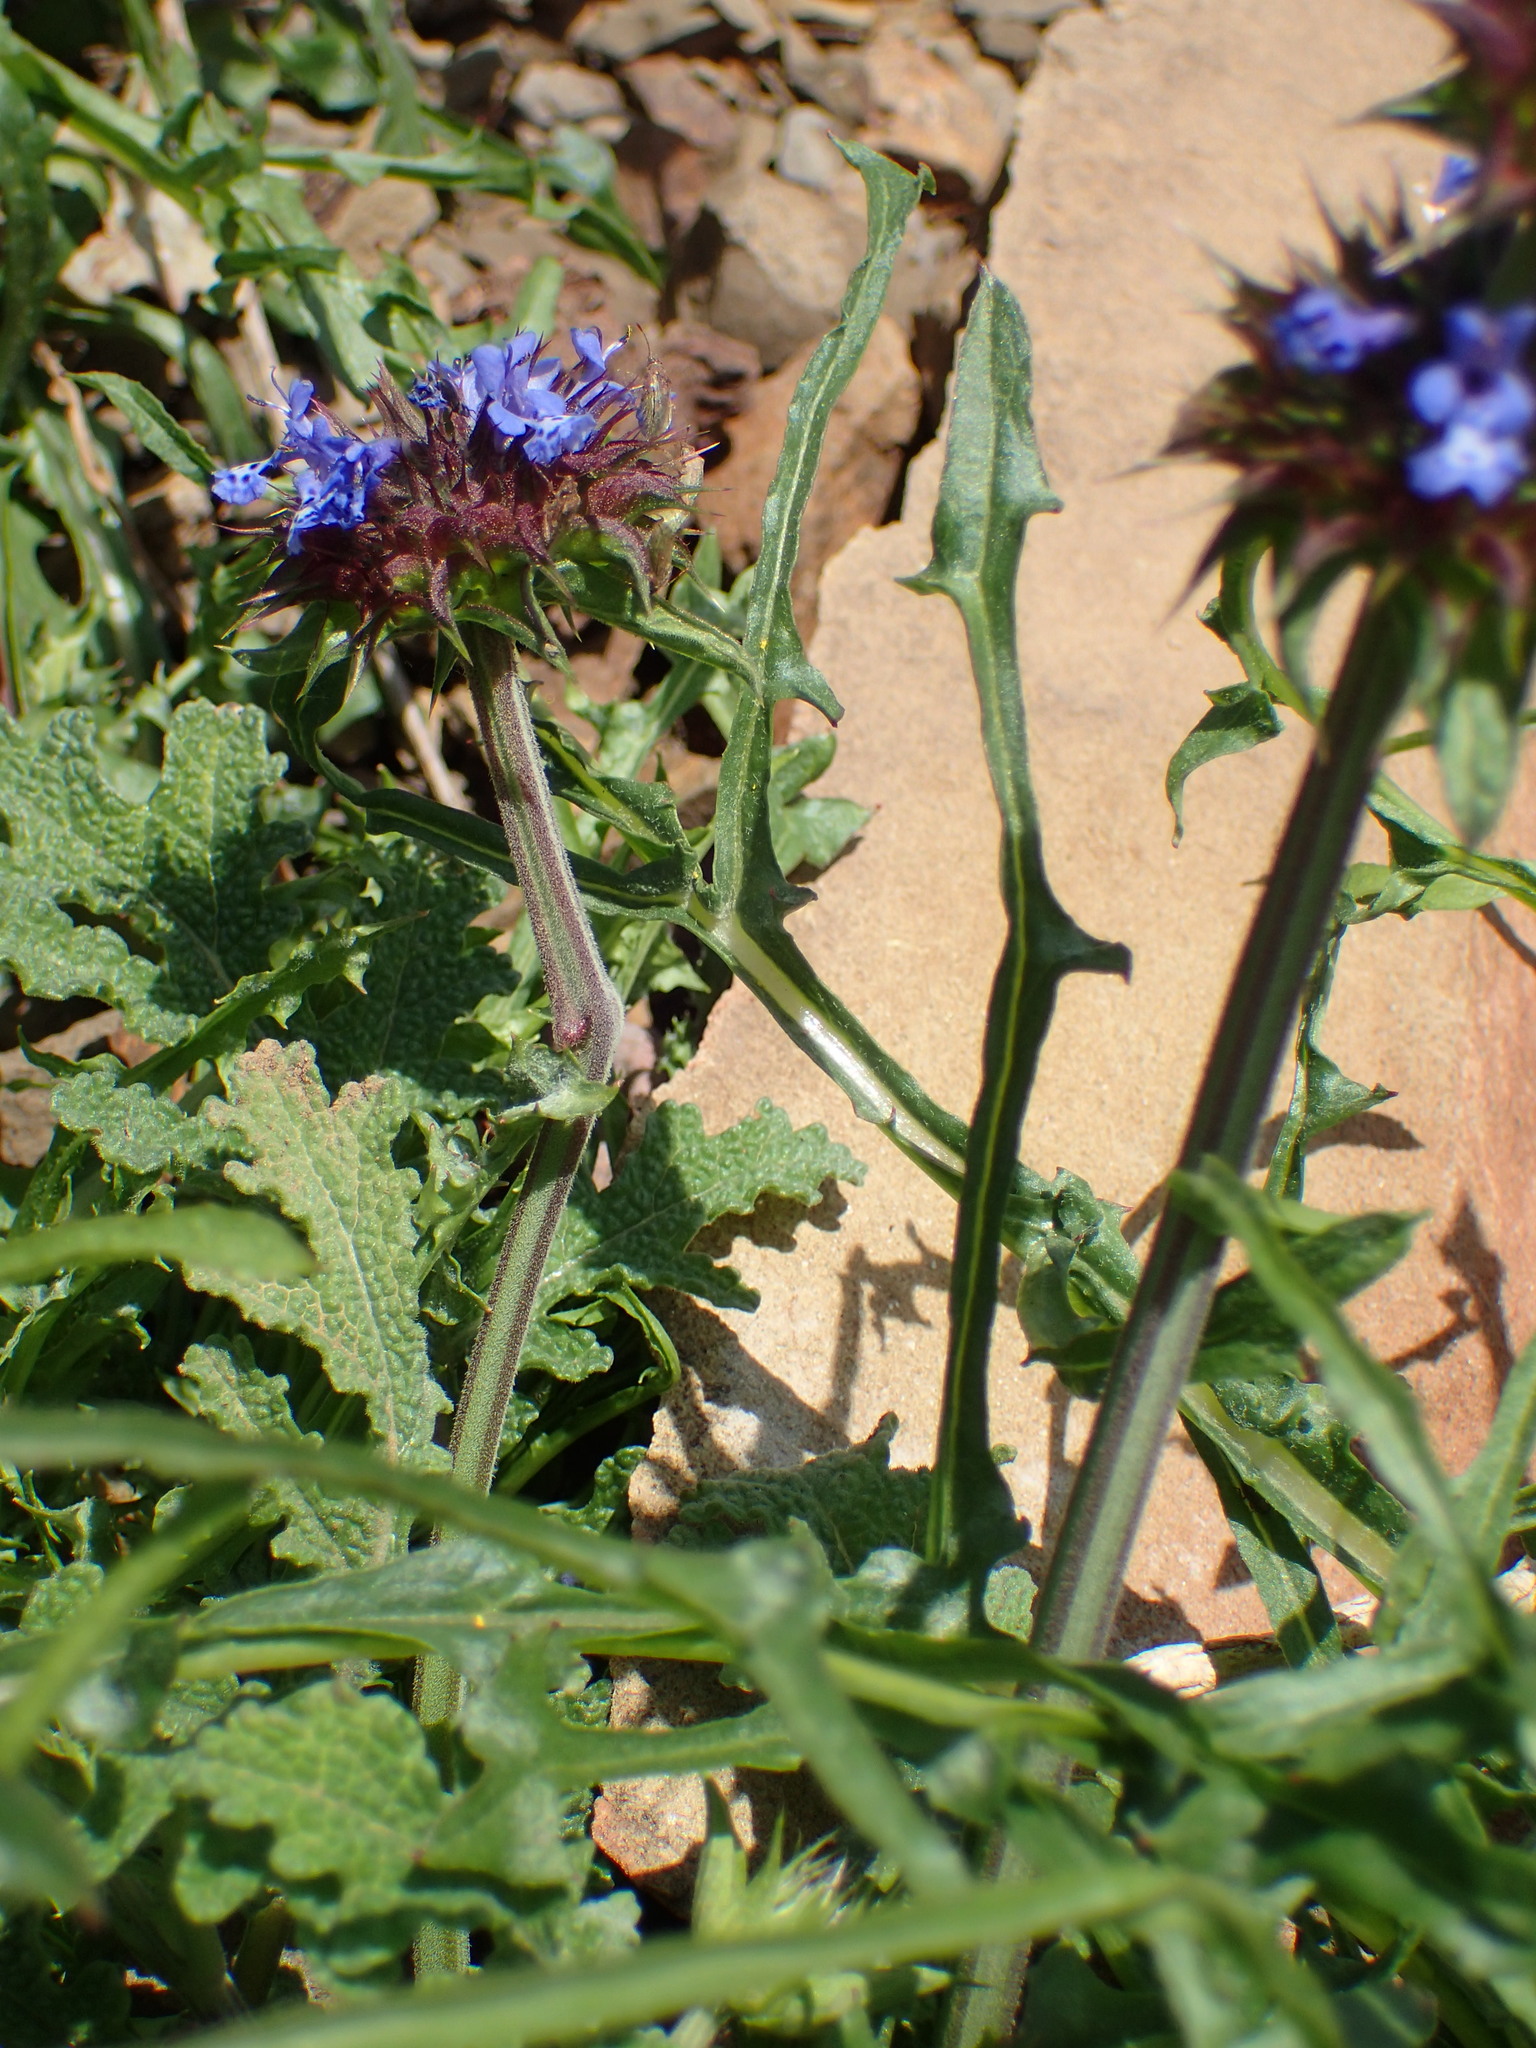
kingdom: Plantae
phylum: Tracheophyta
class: Magnoliopsida
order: Lamiales
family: Lamiaceae
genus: Salvia
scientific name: Salvia columbariae
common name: Chia
